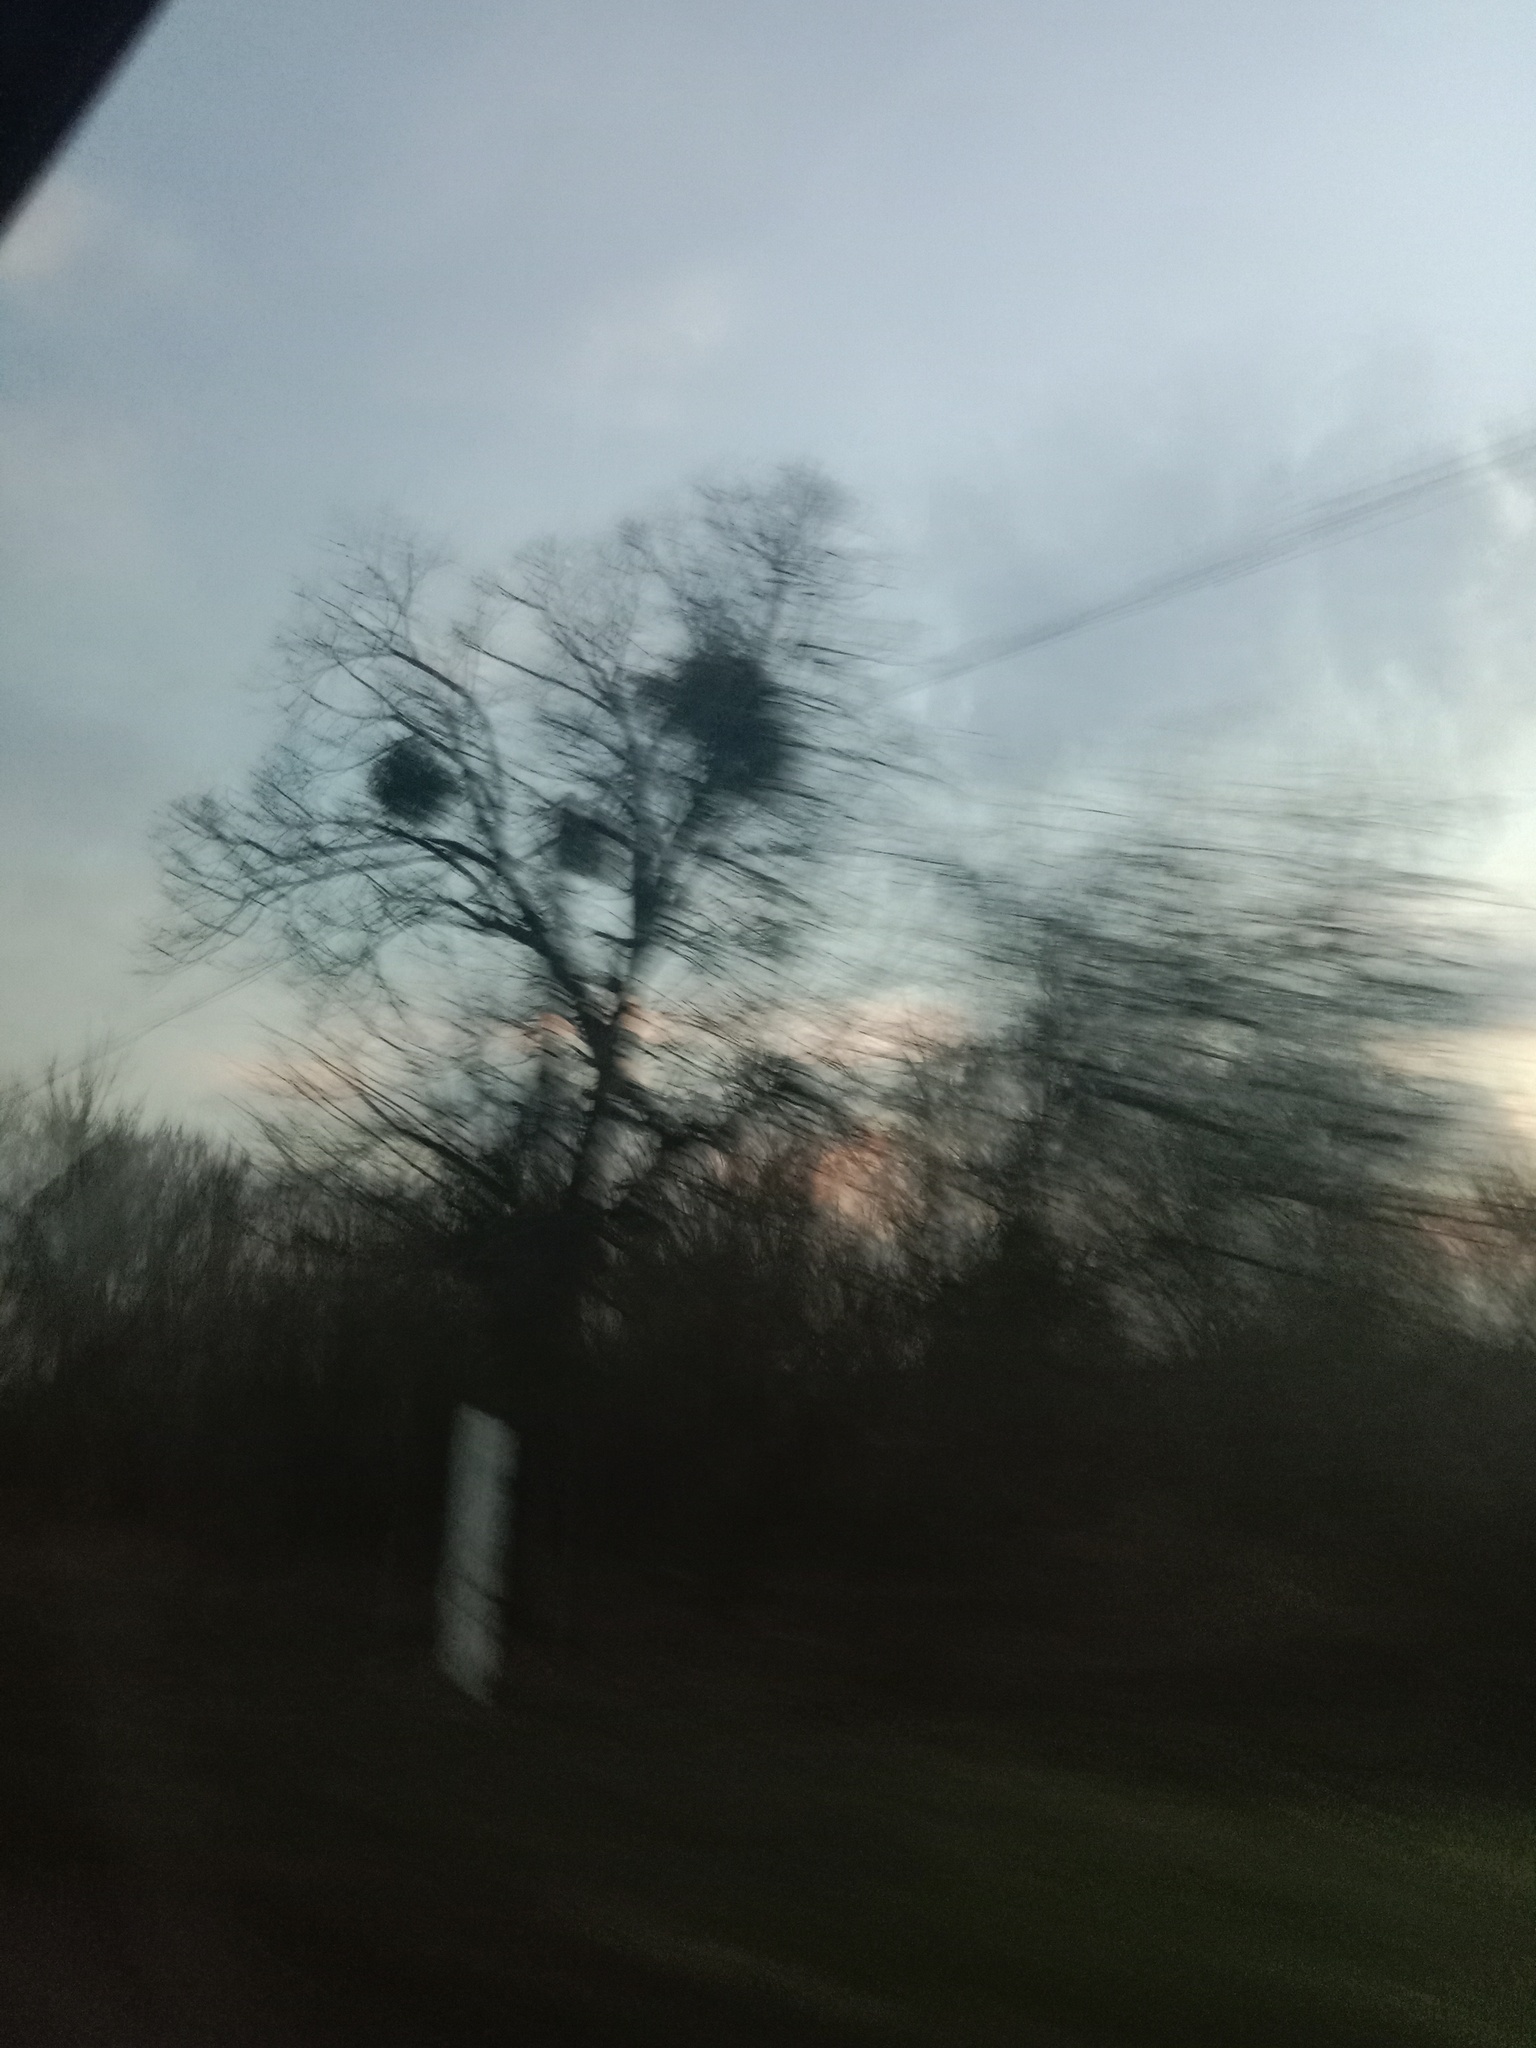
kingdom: Plantae
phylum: Tracheophyta
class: Magnoliopsida
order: Santalales
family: Viscaceae
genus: Viscum
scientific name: Viscum album
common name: Mistletoe
